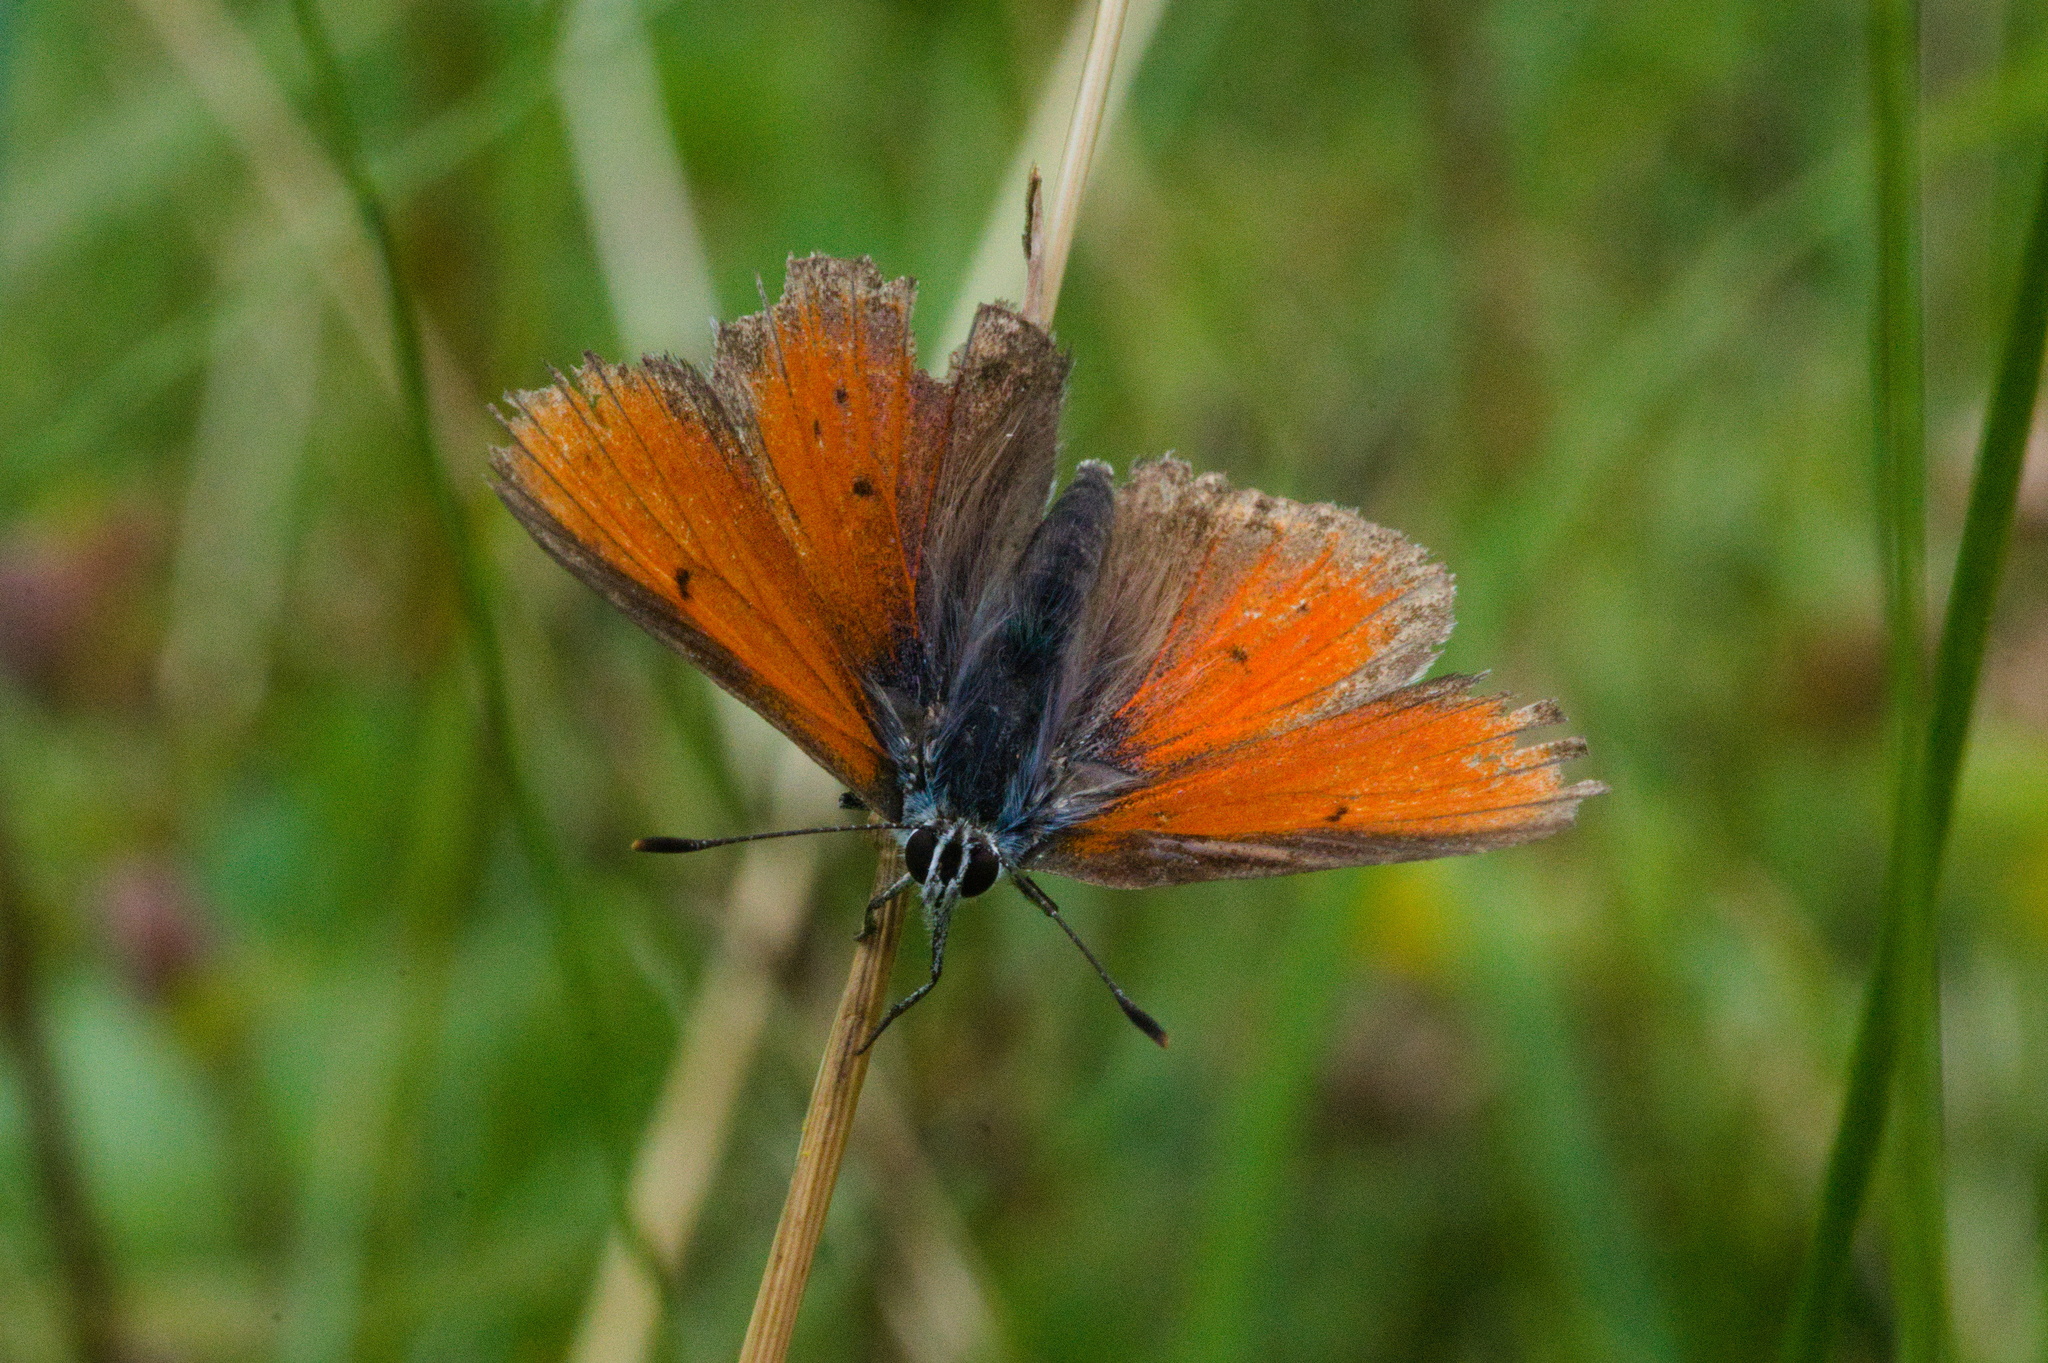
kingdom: Animalia
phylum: Arthropoda
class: Insecta
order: Lepidoptera
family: Lycaenidae
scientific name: Lycaenidae
